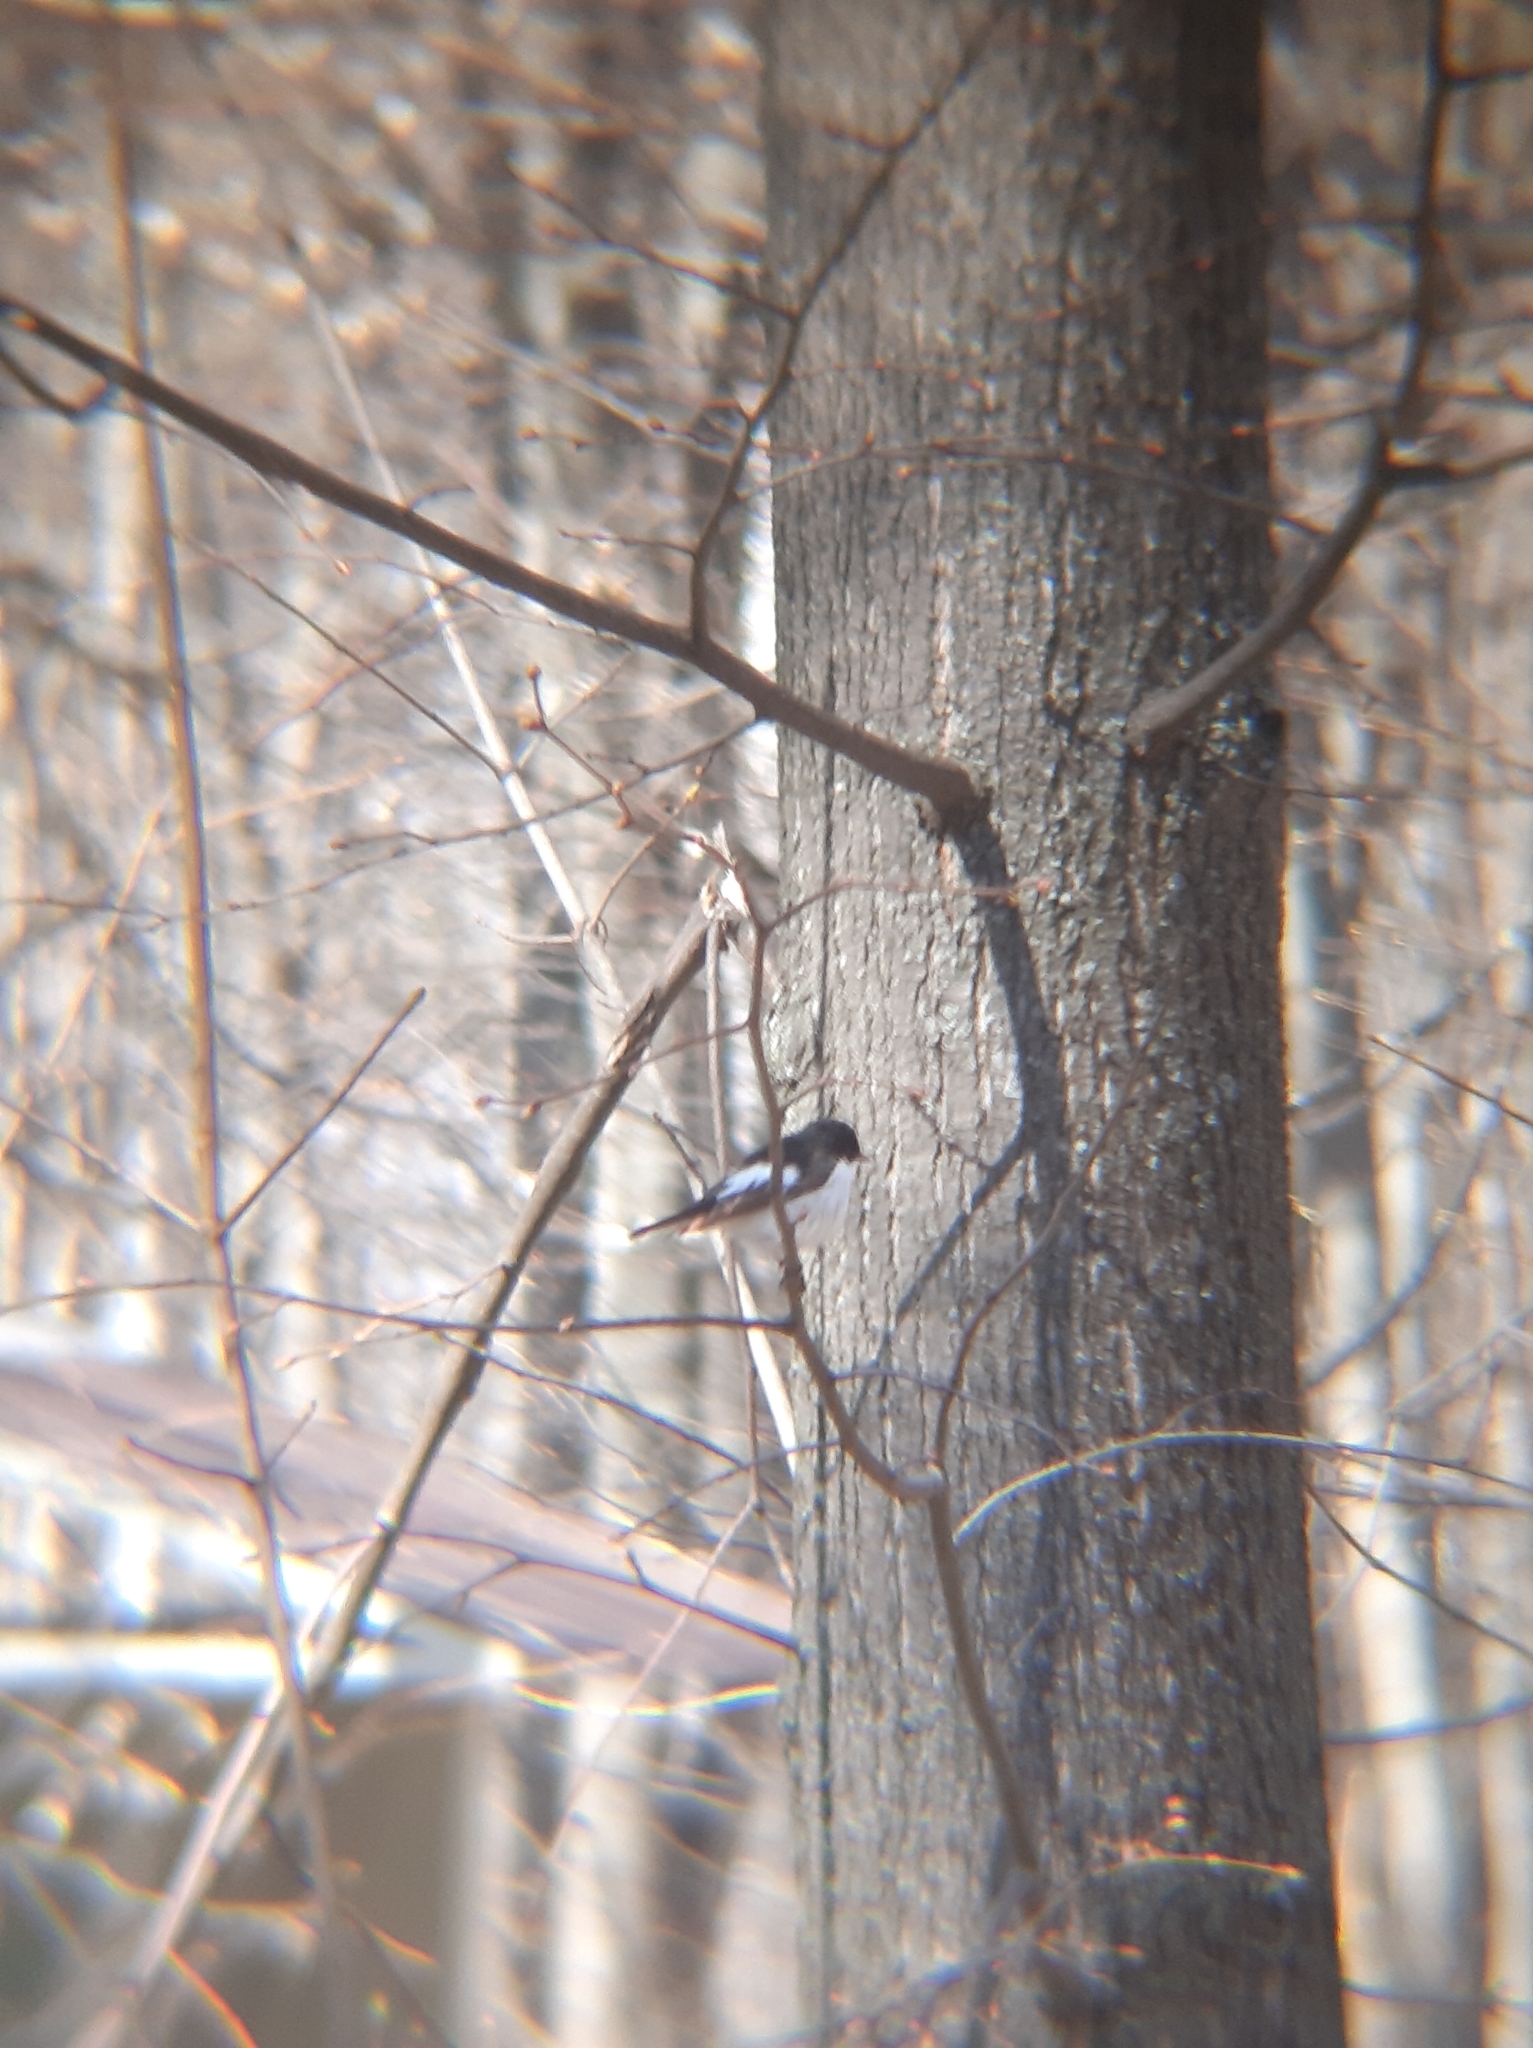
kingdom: Animalia
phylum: Chordata
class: Aves
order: Passeriformes
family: Muscicapidae
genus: Ficedula
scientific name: Ficedula hypoleuca
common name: European pied flycatcher
